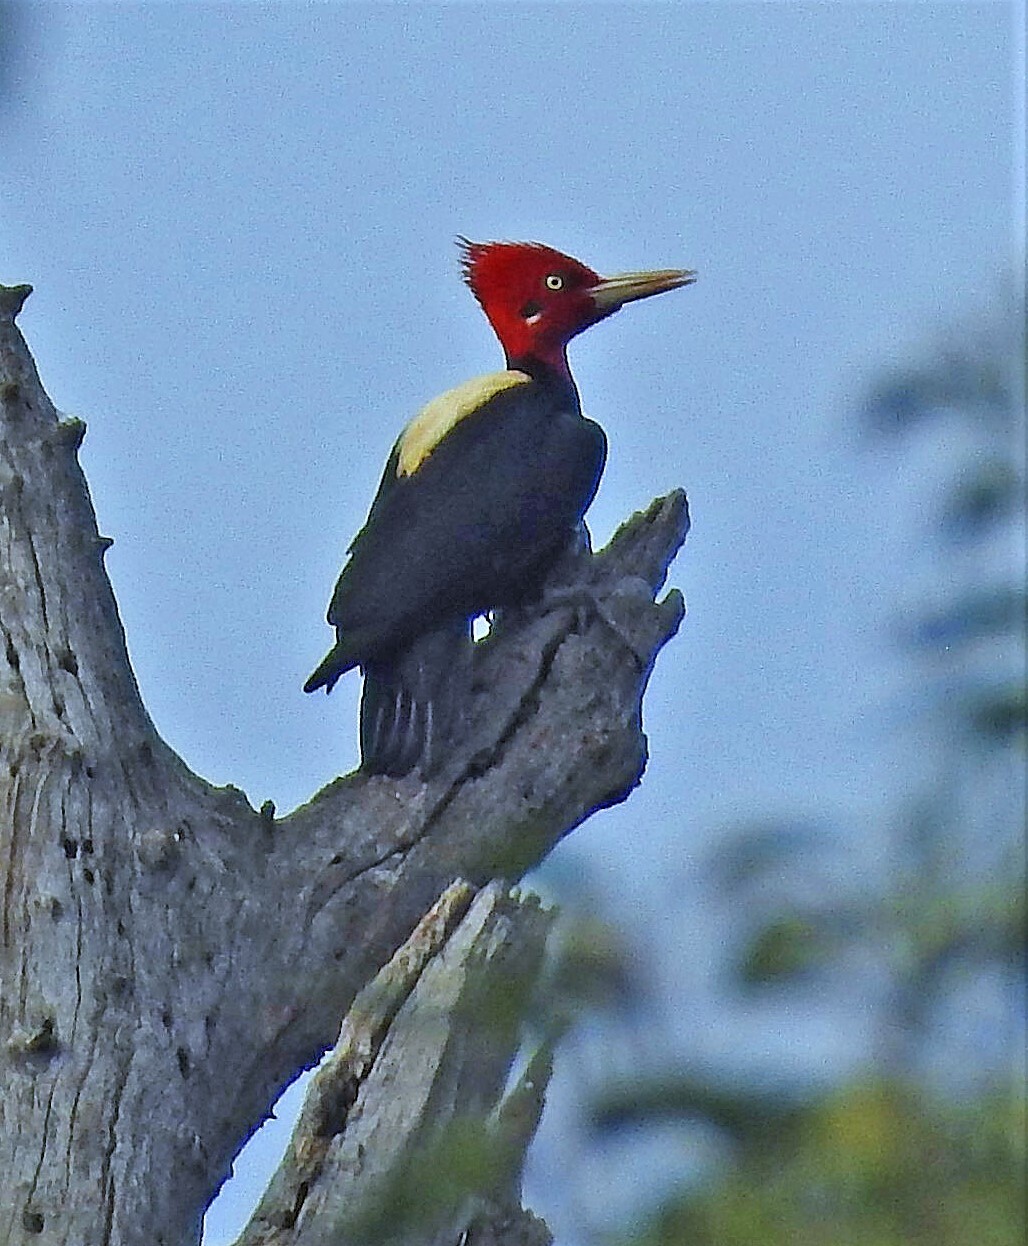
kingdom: Animalia
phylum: Chordata
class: Aves
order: Piciformes
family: Picidae
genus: Campephilus
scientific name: Campephilus leucopogon
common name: Cream-backed woodpecker
